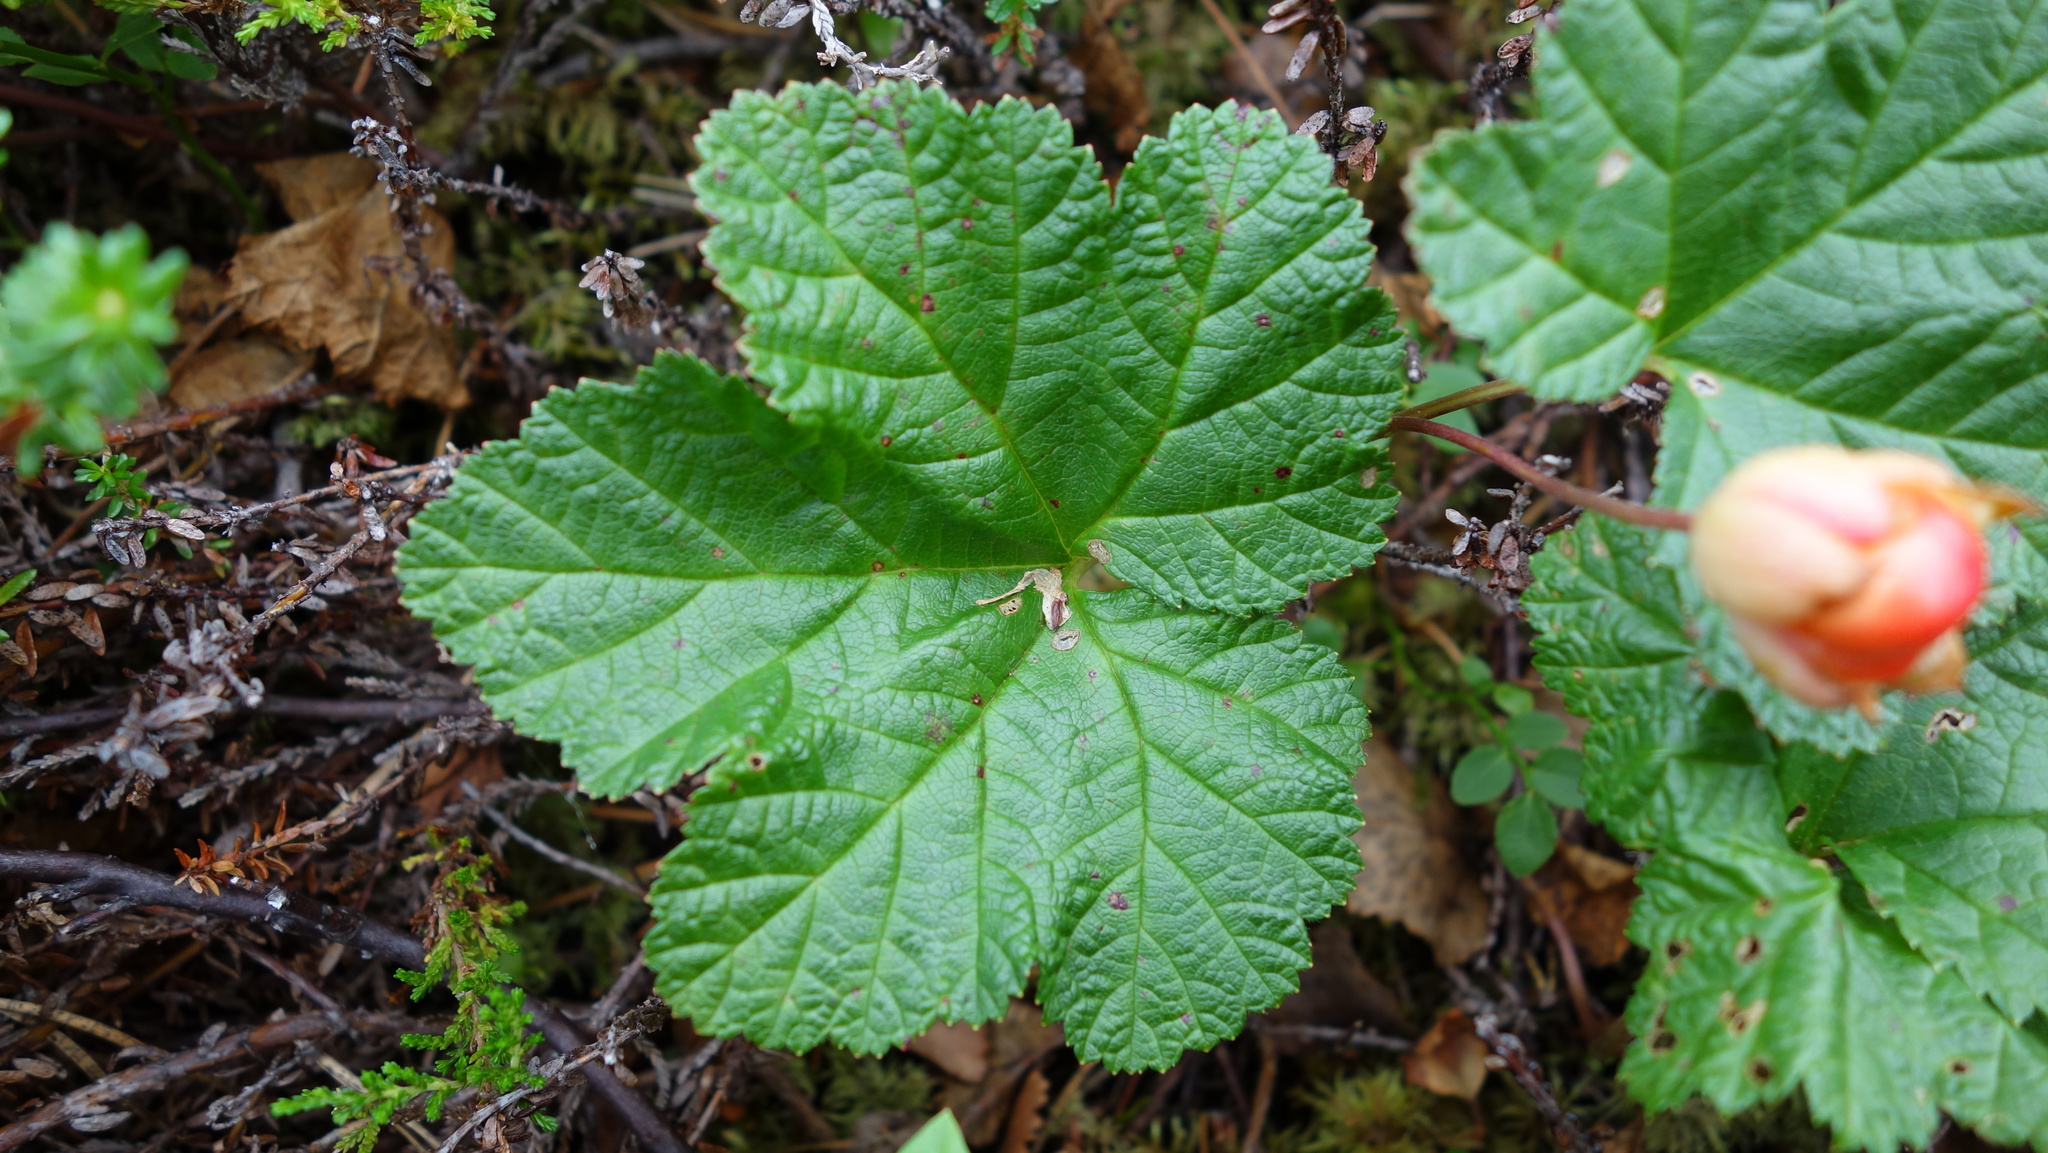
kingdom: Plantae
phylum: Tracheophyta
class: Magnoliopsida
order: Rosales
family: Rosaceae
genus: Rubus
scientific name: Rubus chamaemorus
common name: Cloudberry
